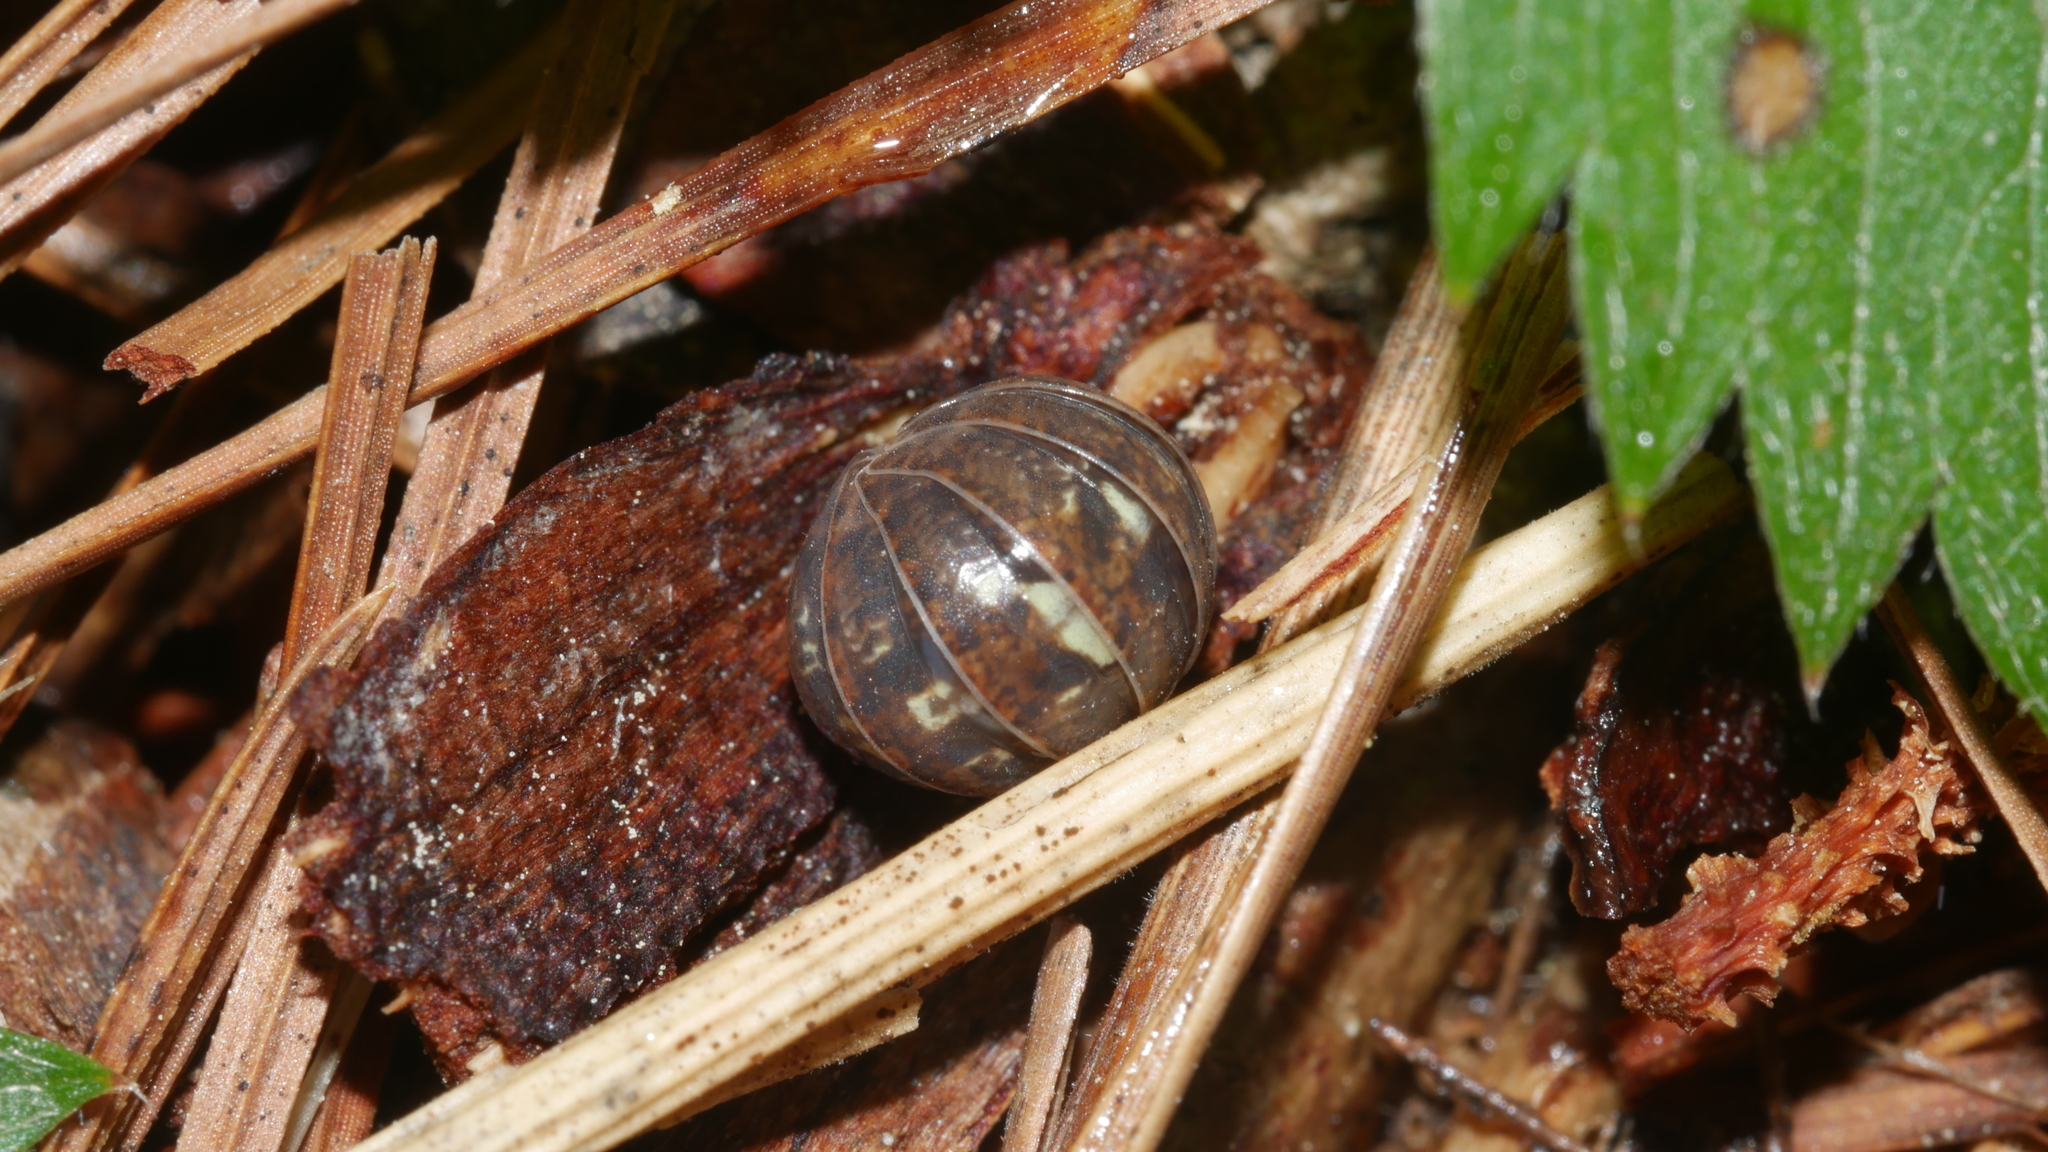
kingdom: Animalia
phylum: Arthropoda
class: Malacostraca
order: Isopoda
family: Armadillidiidae
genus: Armadillidium
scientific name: Armadillidium vulgare
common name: Common pill woodlouse
